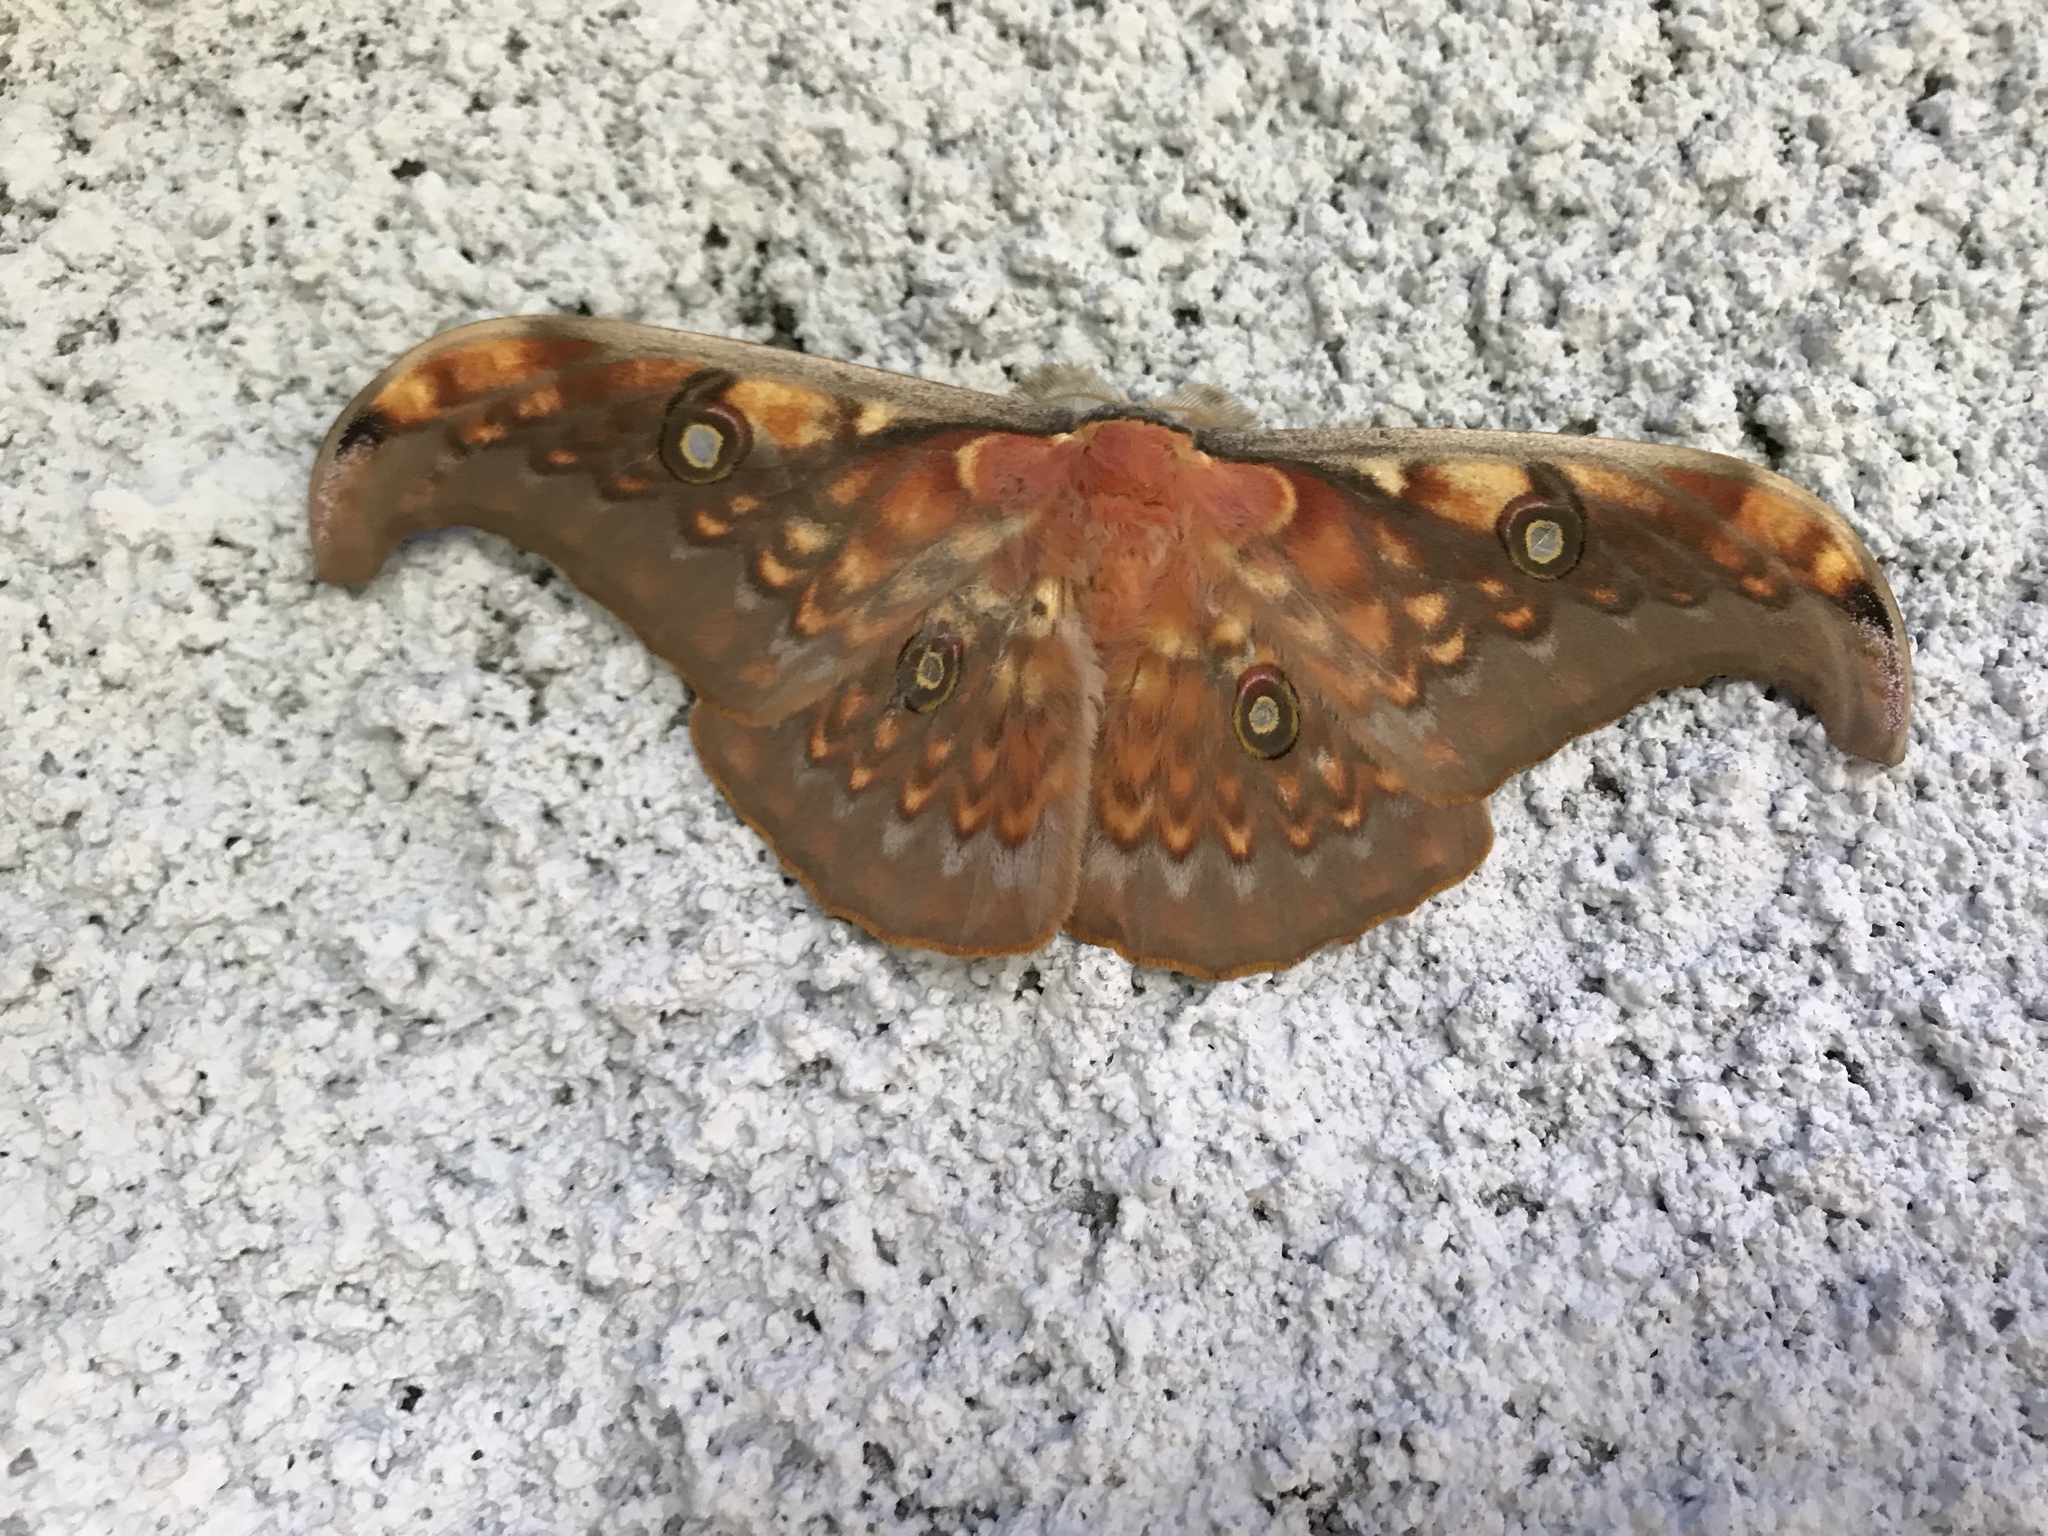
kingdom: Animalia
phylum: Arthropoda
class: Insecta
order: Lepidoptera
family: Saturniidae
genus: Antheraea
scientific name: Antheraea larissa
